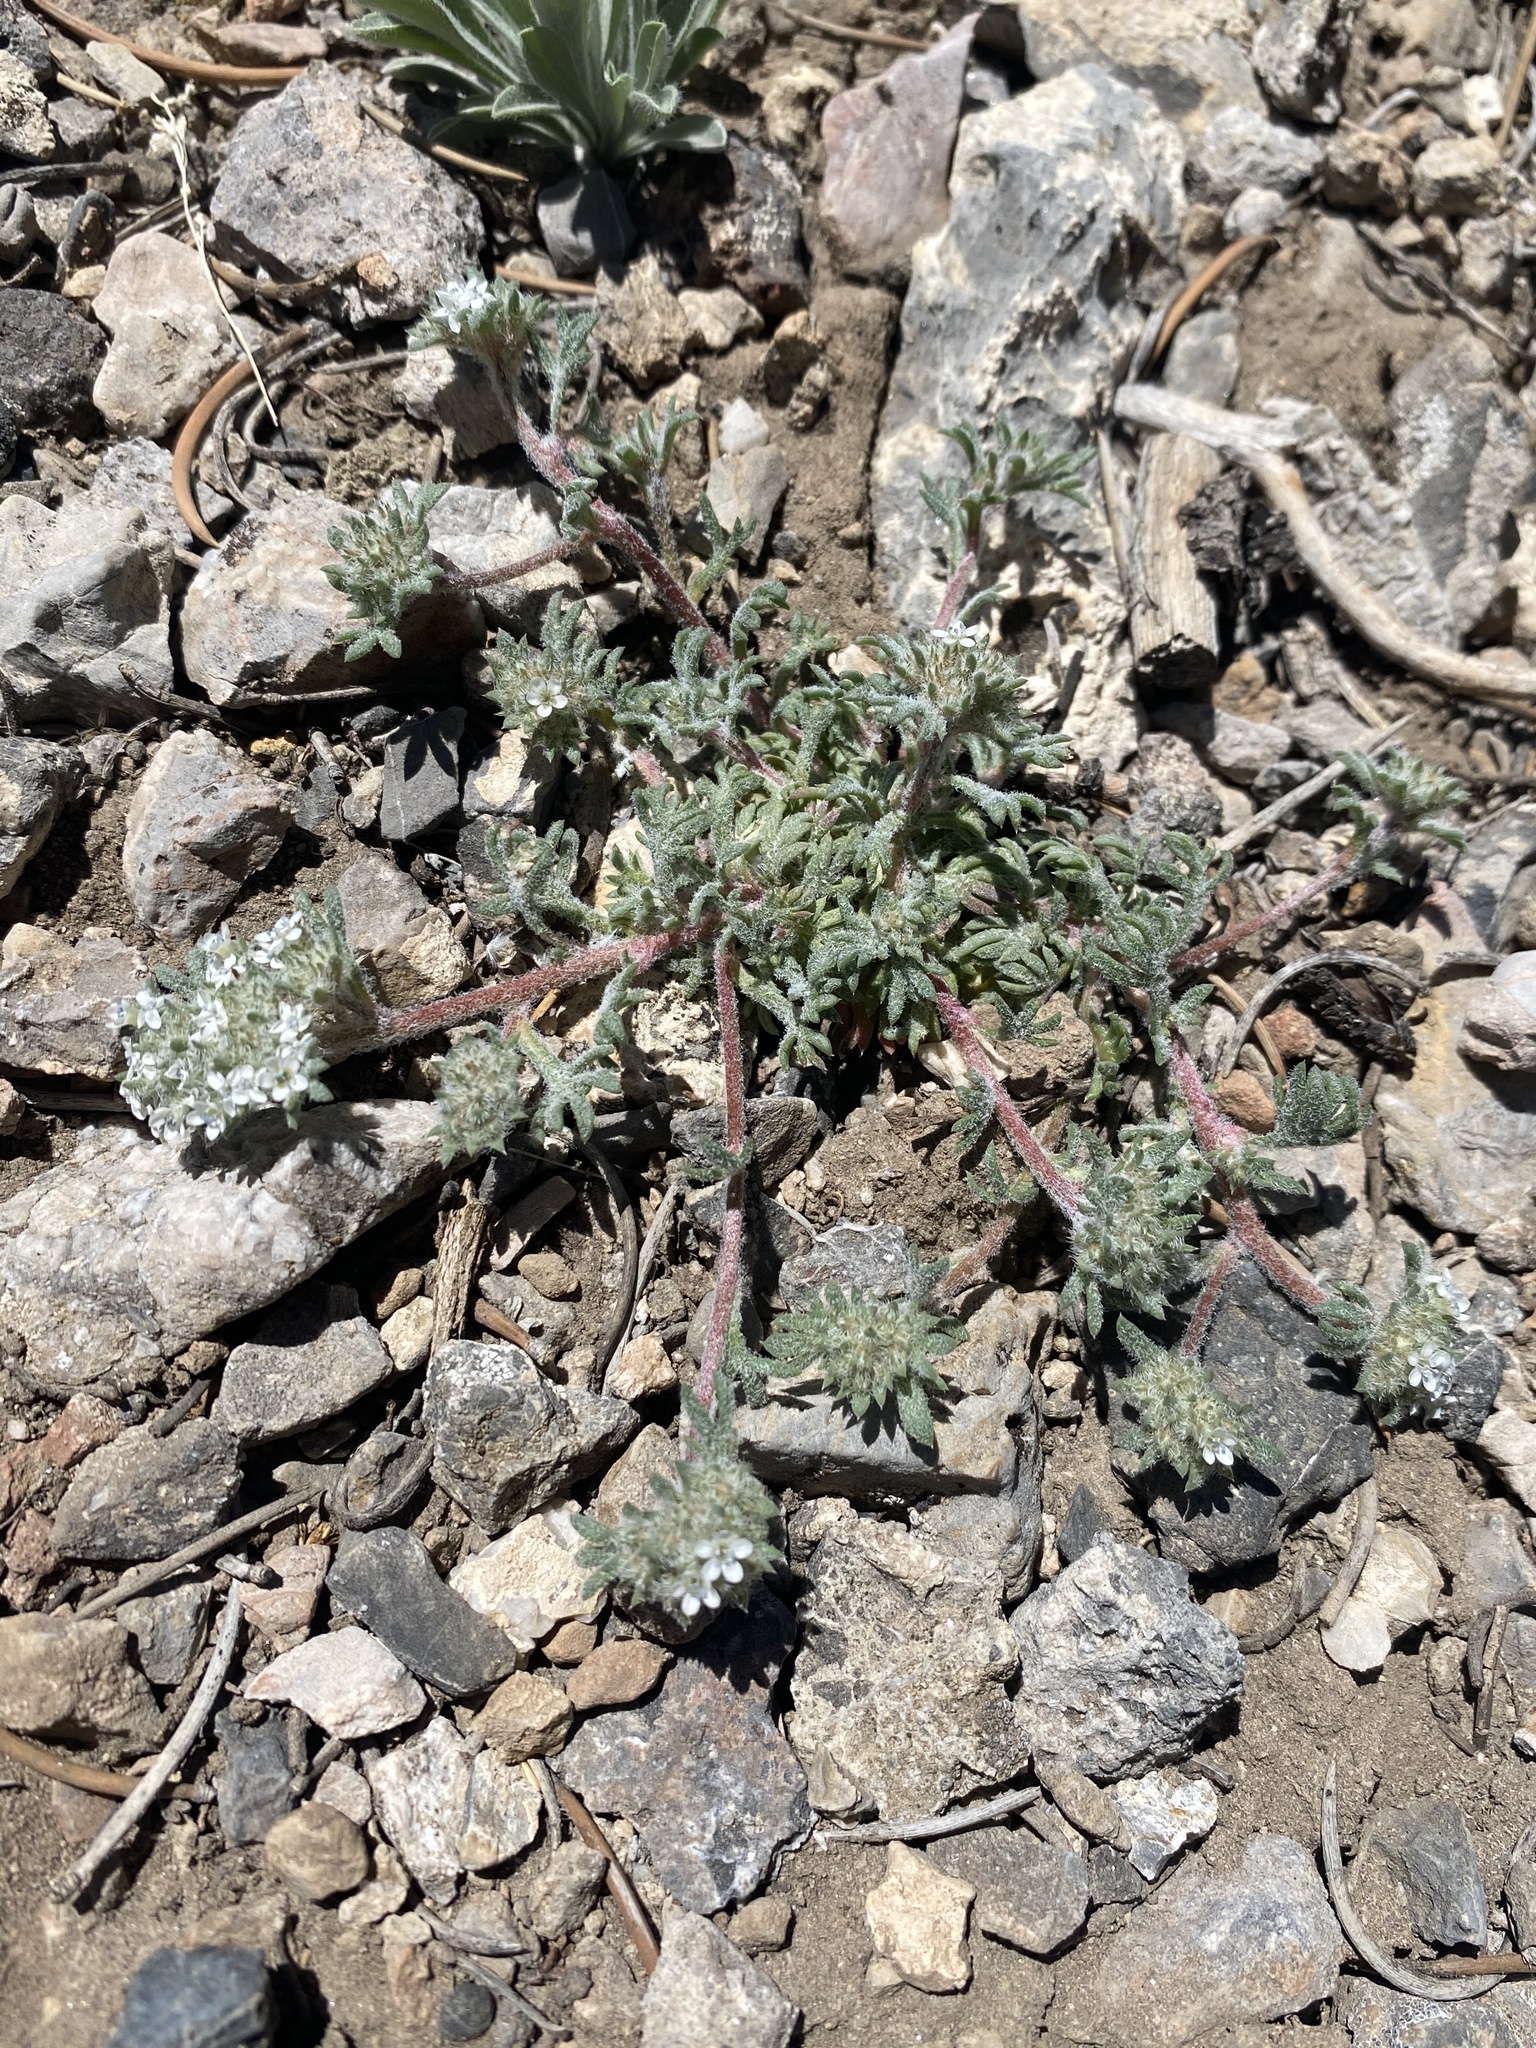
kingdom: Plantae
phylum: Tracheophyta
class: Magnoliopsida
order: Ericales
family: Polemoniaceae
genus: Ipomopsis
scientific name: Ipomopsis congesta
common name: Ball-head gilia
